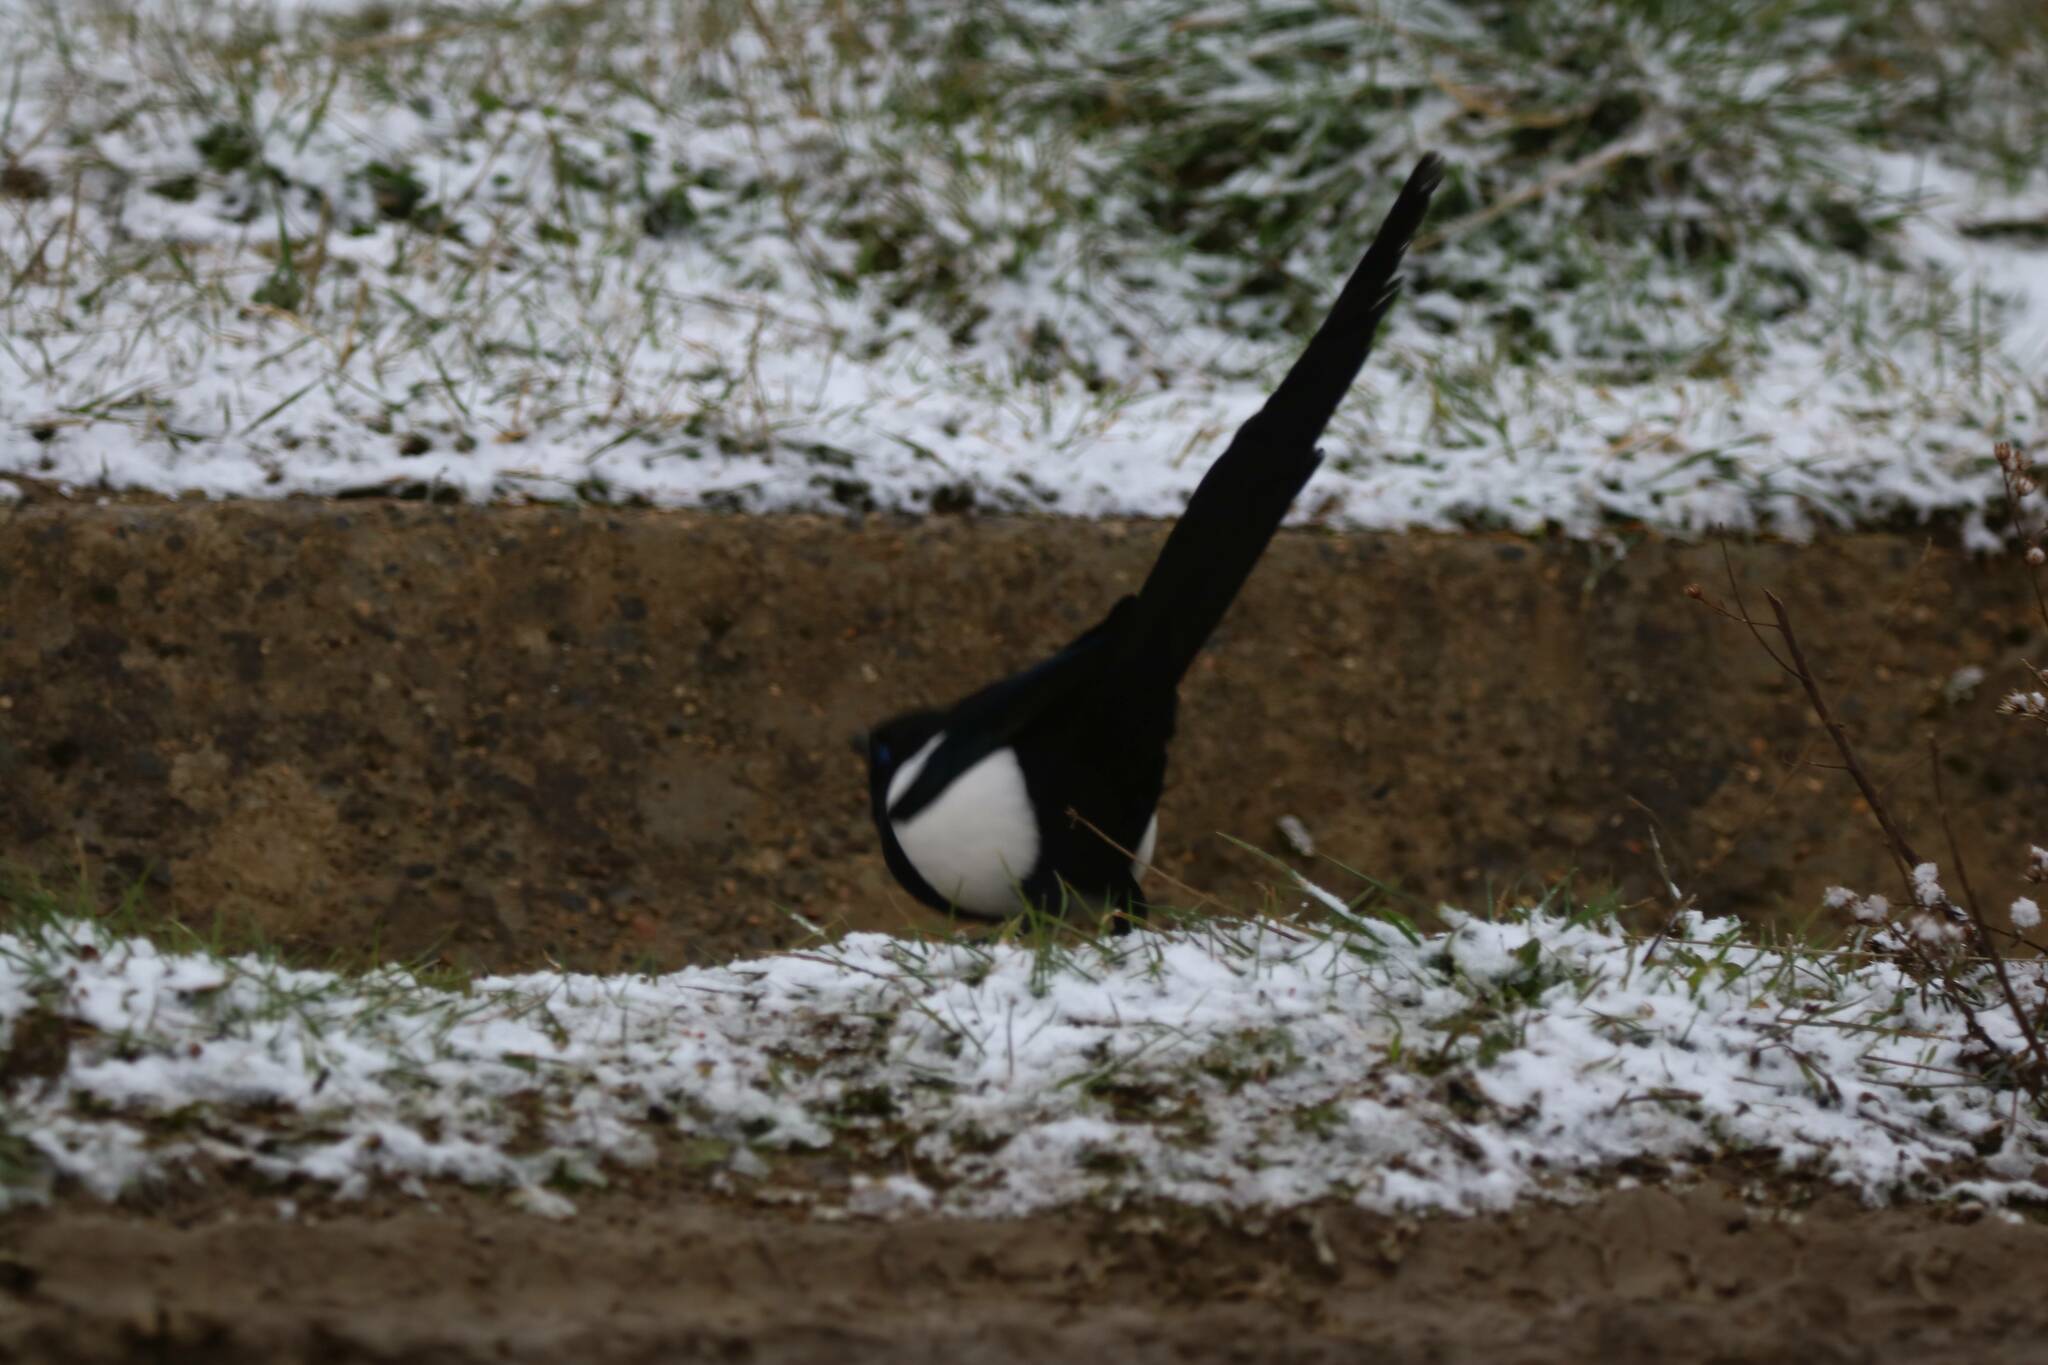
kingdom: Animalia
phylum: Chordata
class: Aves
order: Passeriformes
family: Corvidae
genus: Pica
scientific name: Pica mauritanica
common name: Maghreb magpie
